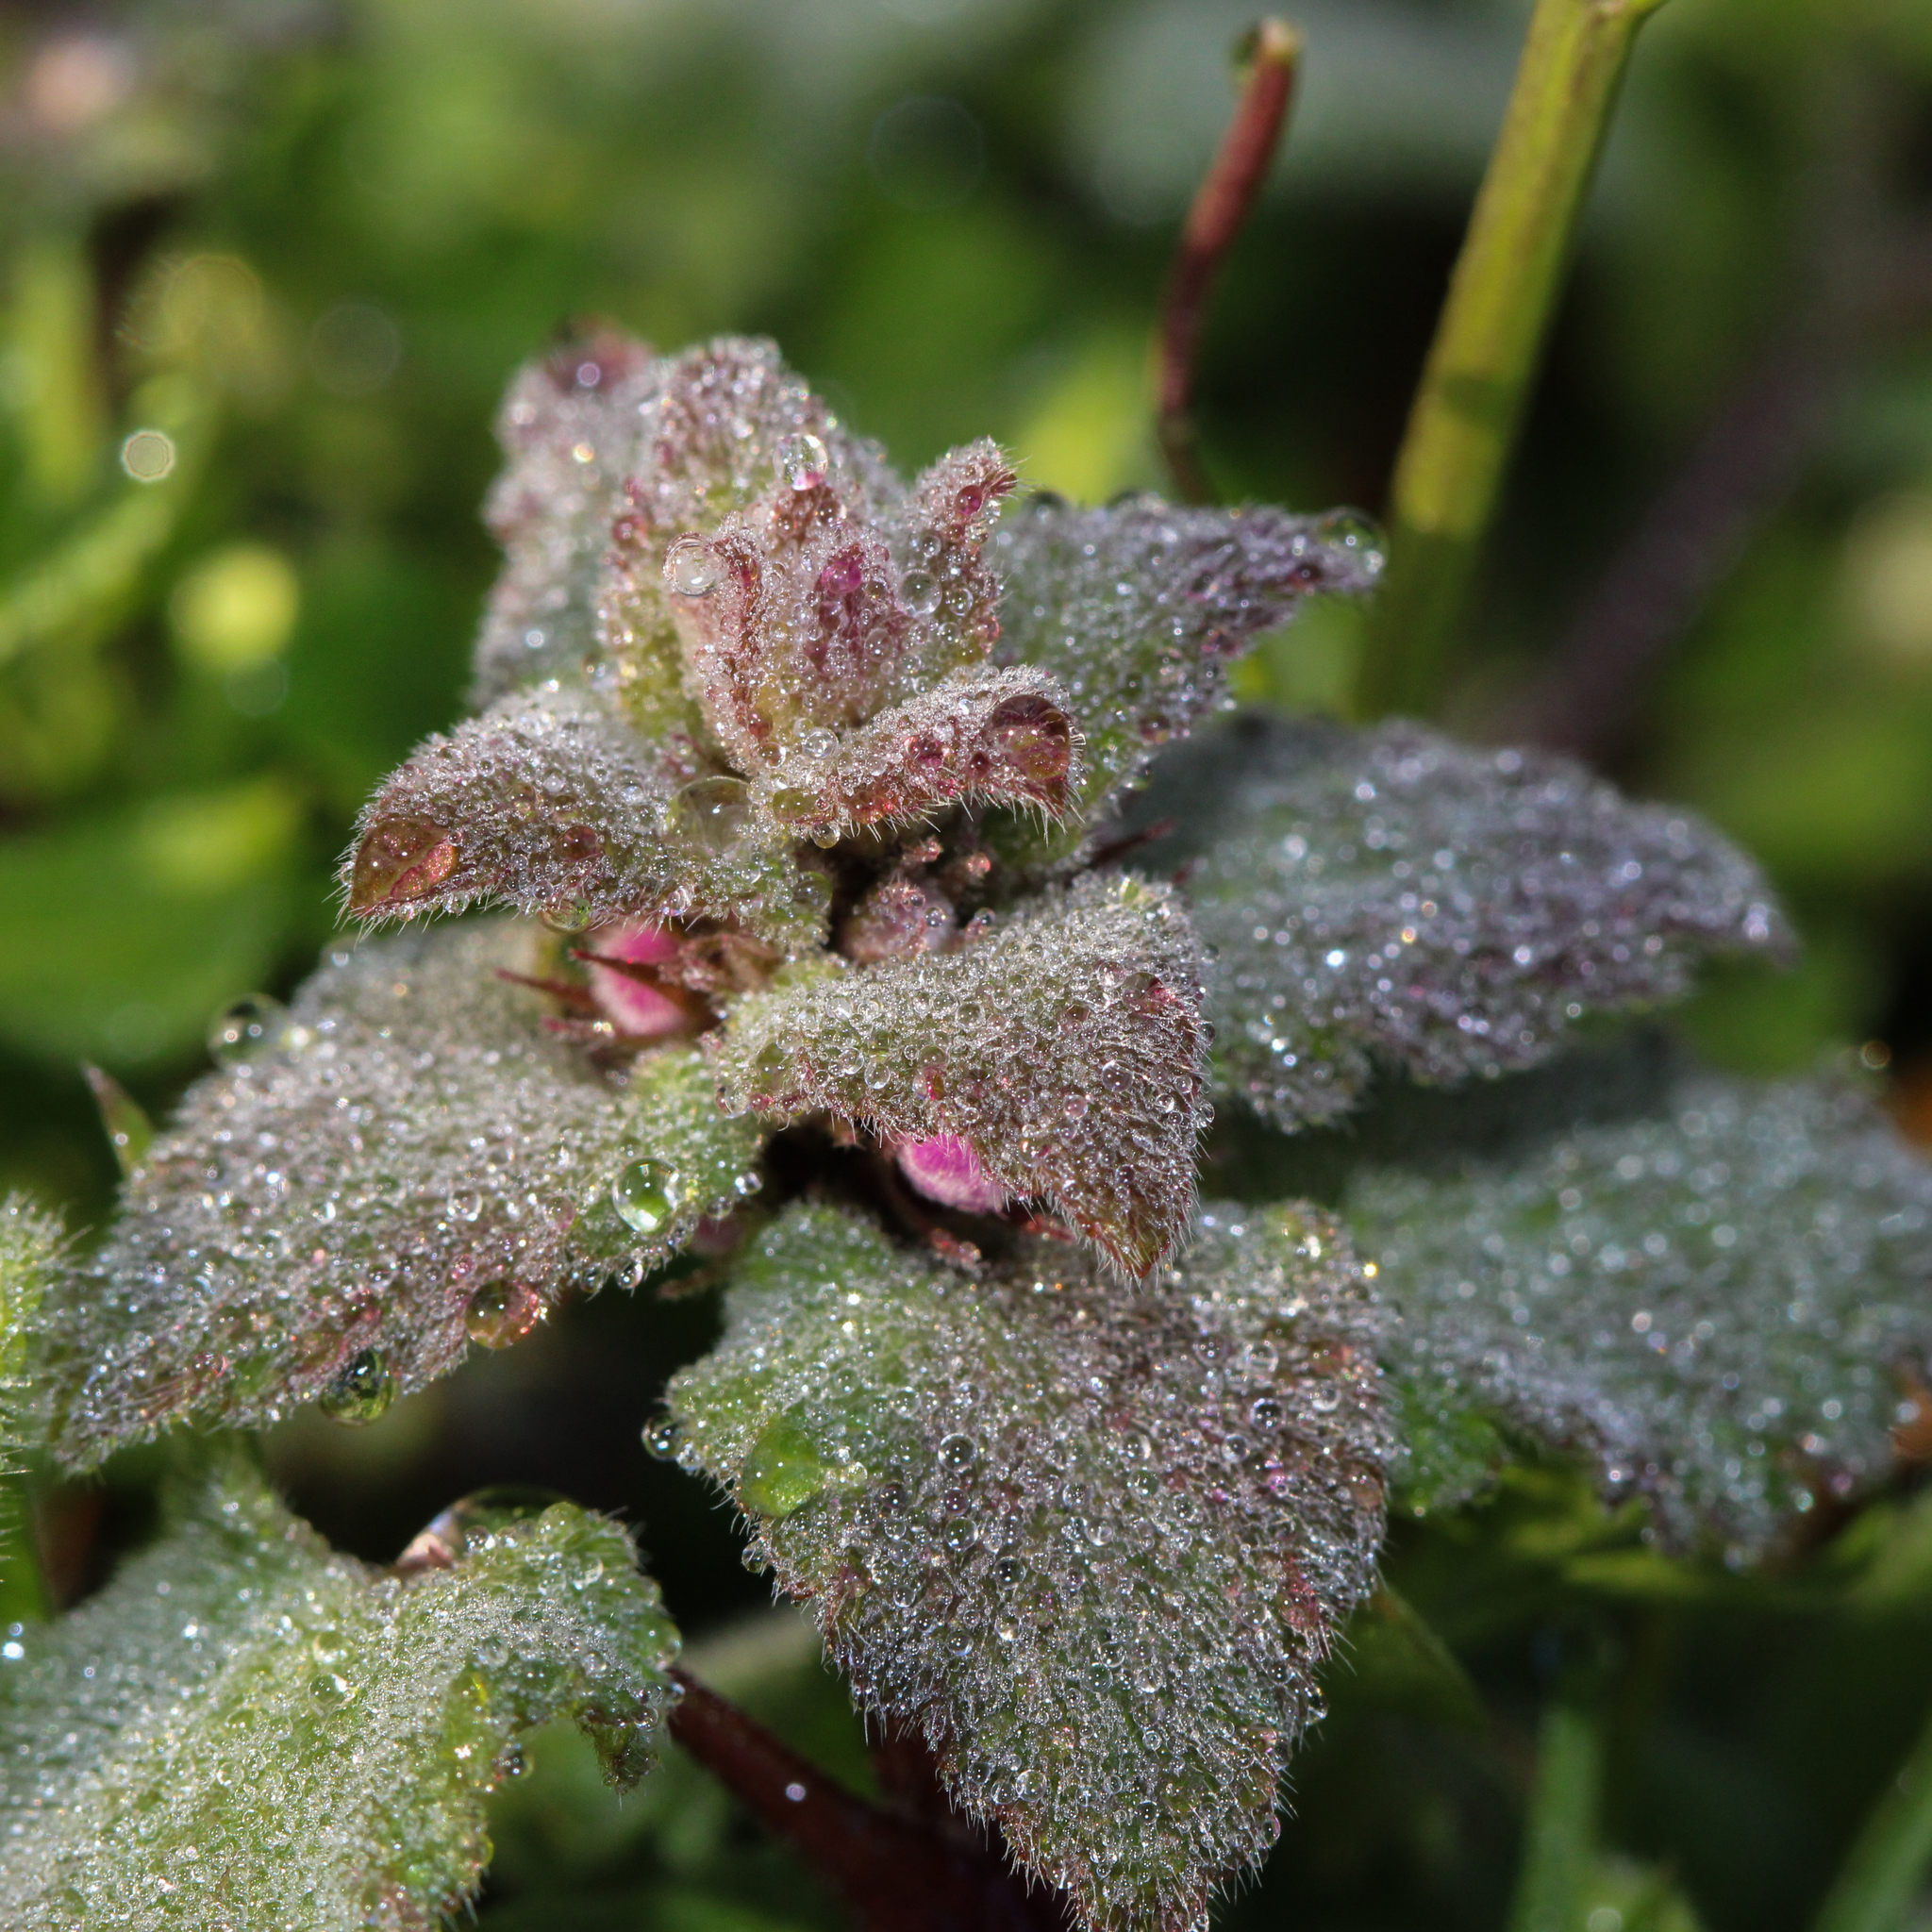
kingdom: Plantae
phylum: Tracheophyta
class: Magnoliopsida
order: Lamiales
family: Lamiaceae
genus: Lamium
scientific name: Lamium purpureum
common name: Red dead-nettle
